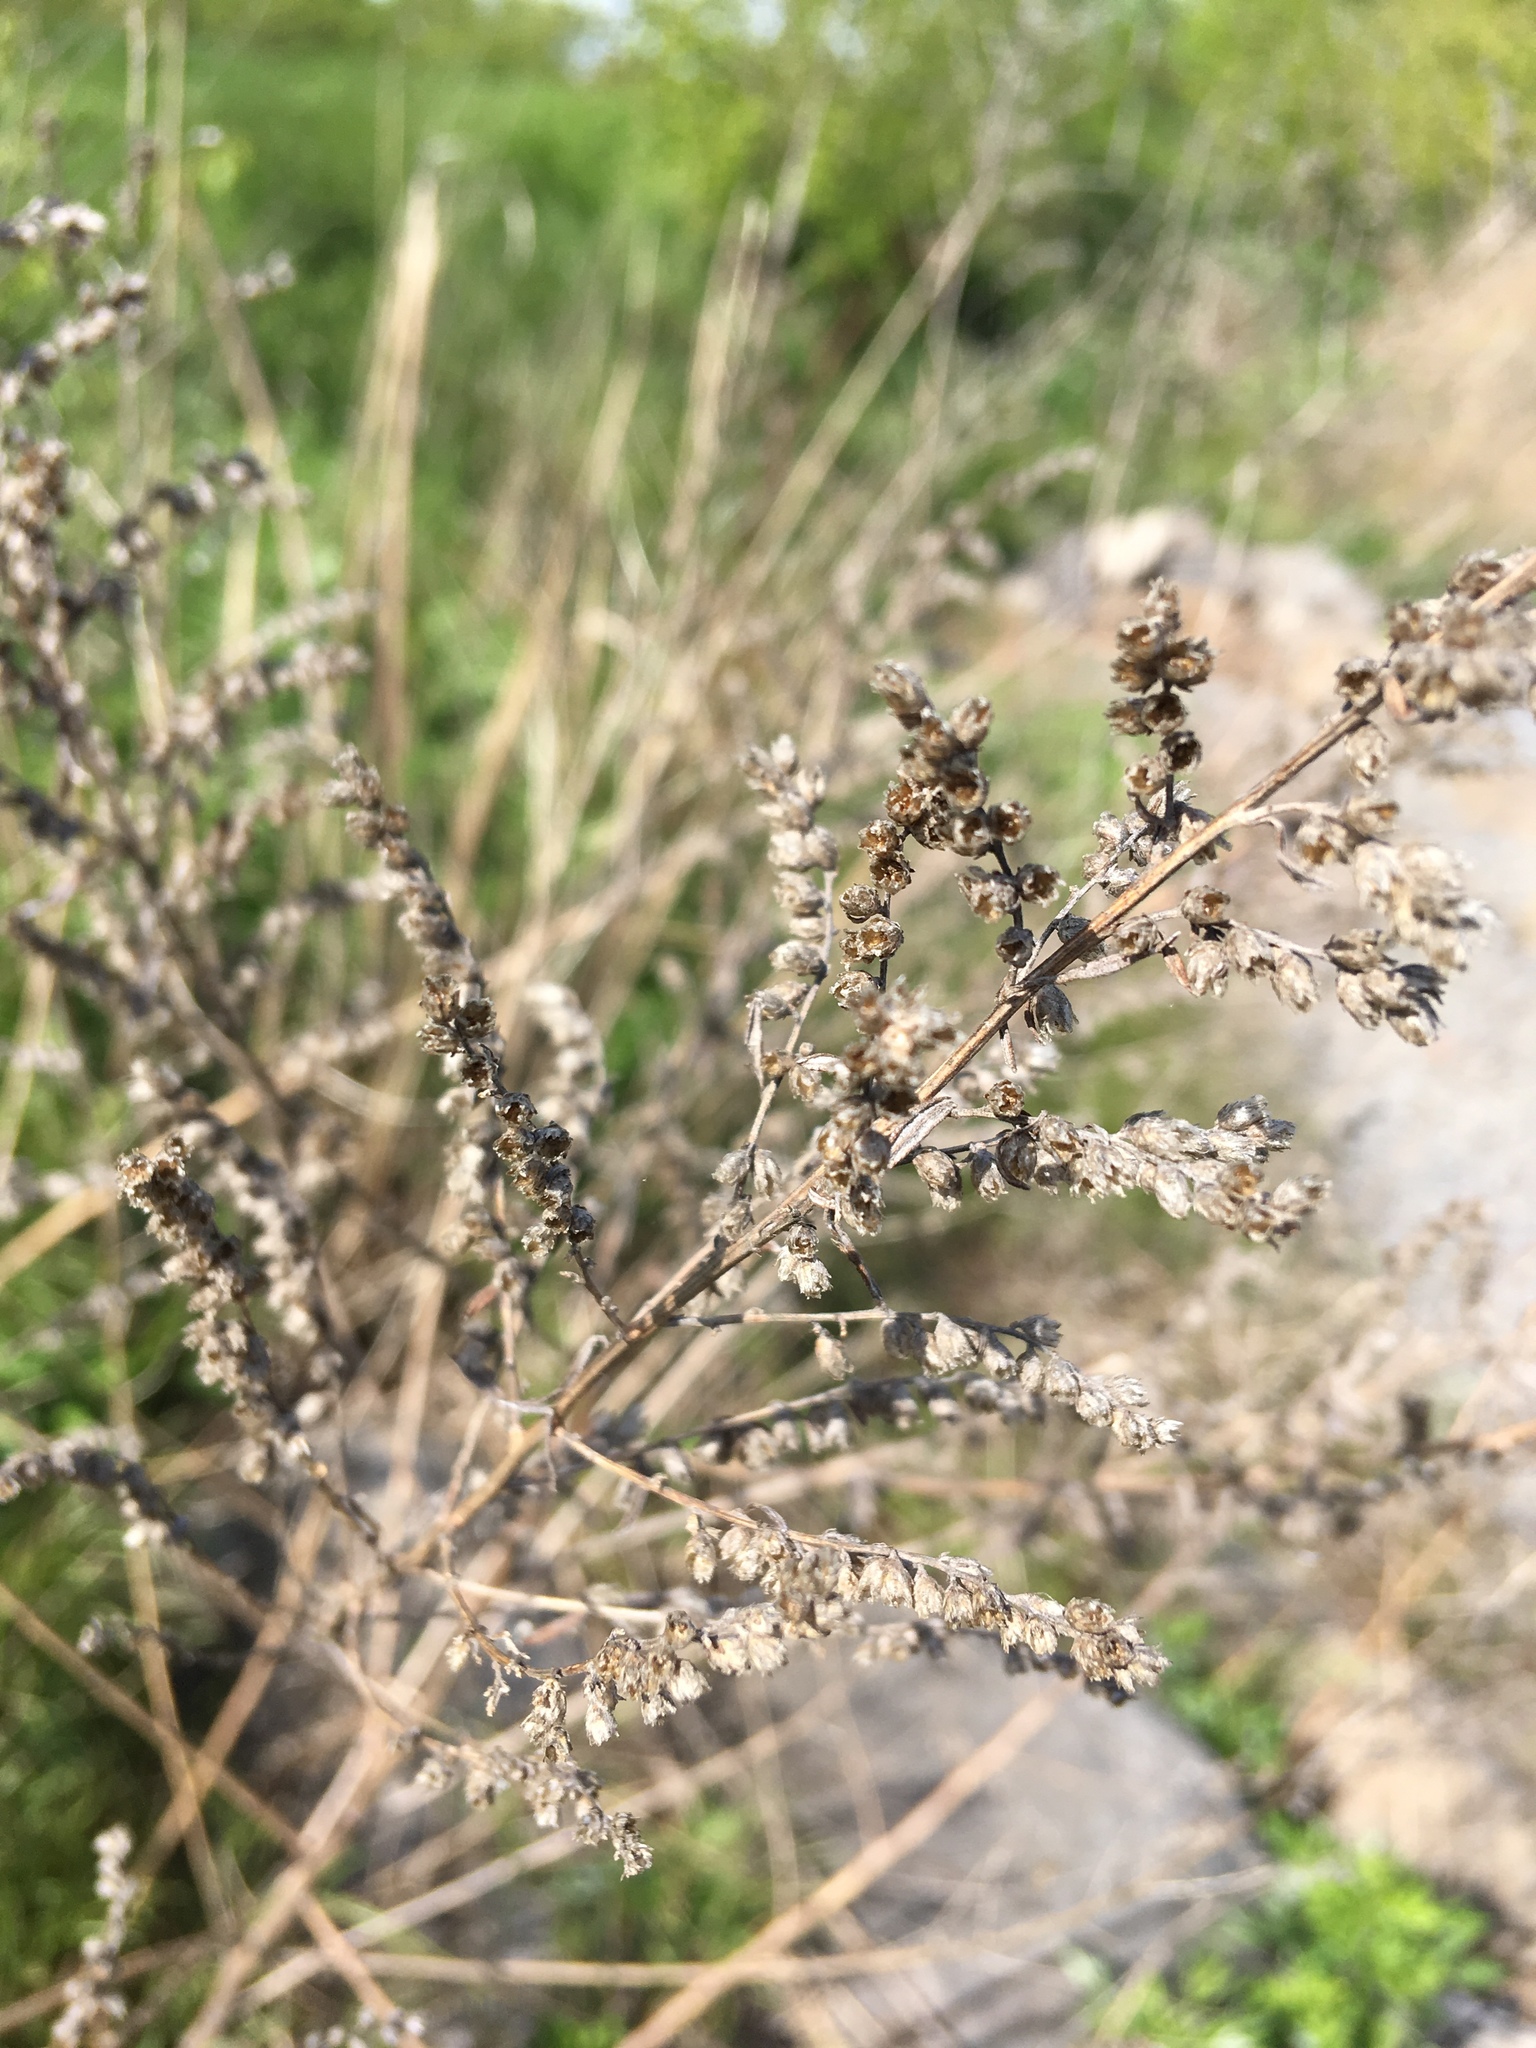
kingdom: Plantae
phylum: Tracheophyta
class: Magnoliopsida
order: Asterales
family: Asteraceae
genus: Artemisia
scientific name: Artemisia vulgaris
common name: Mugwort
